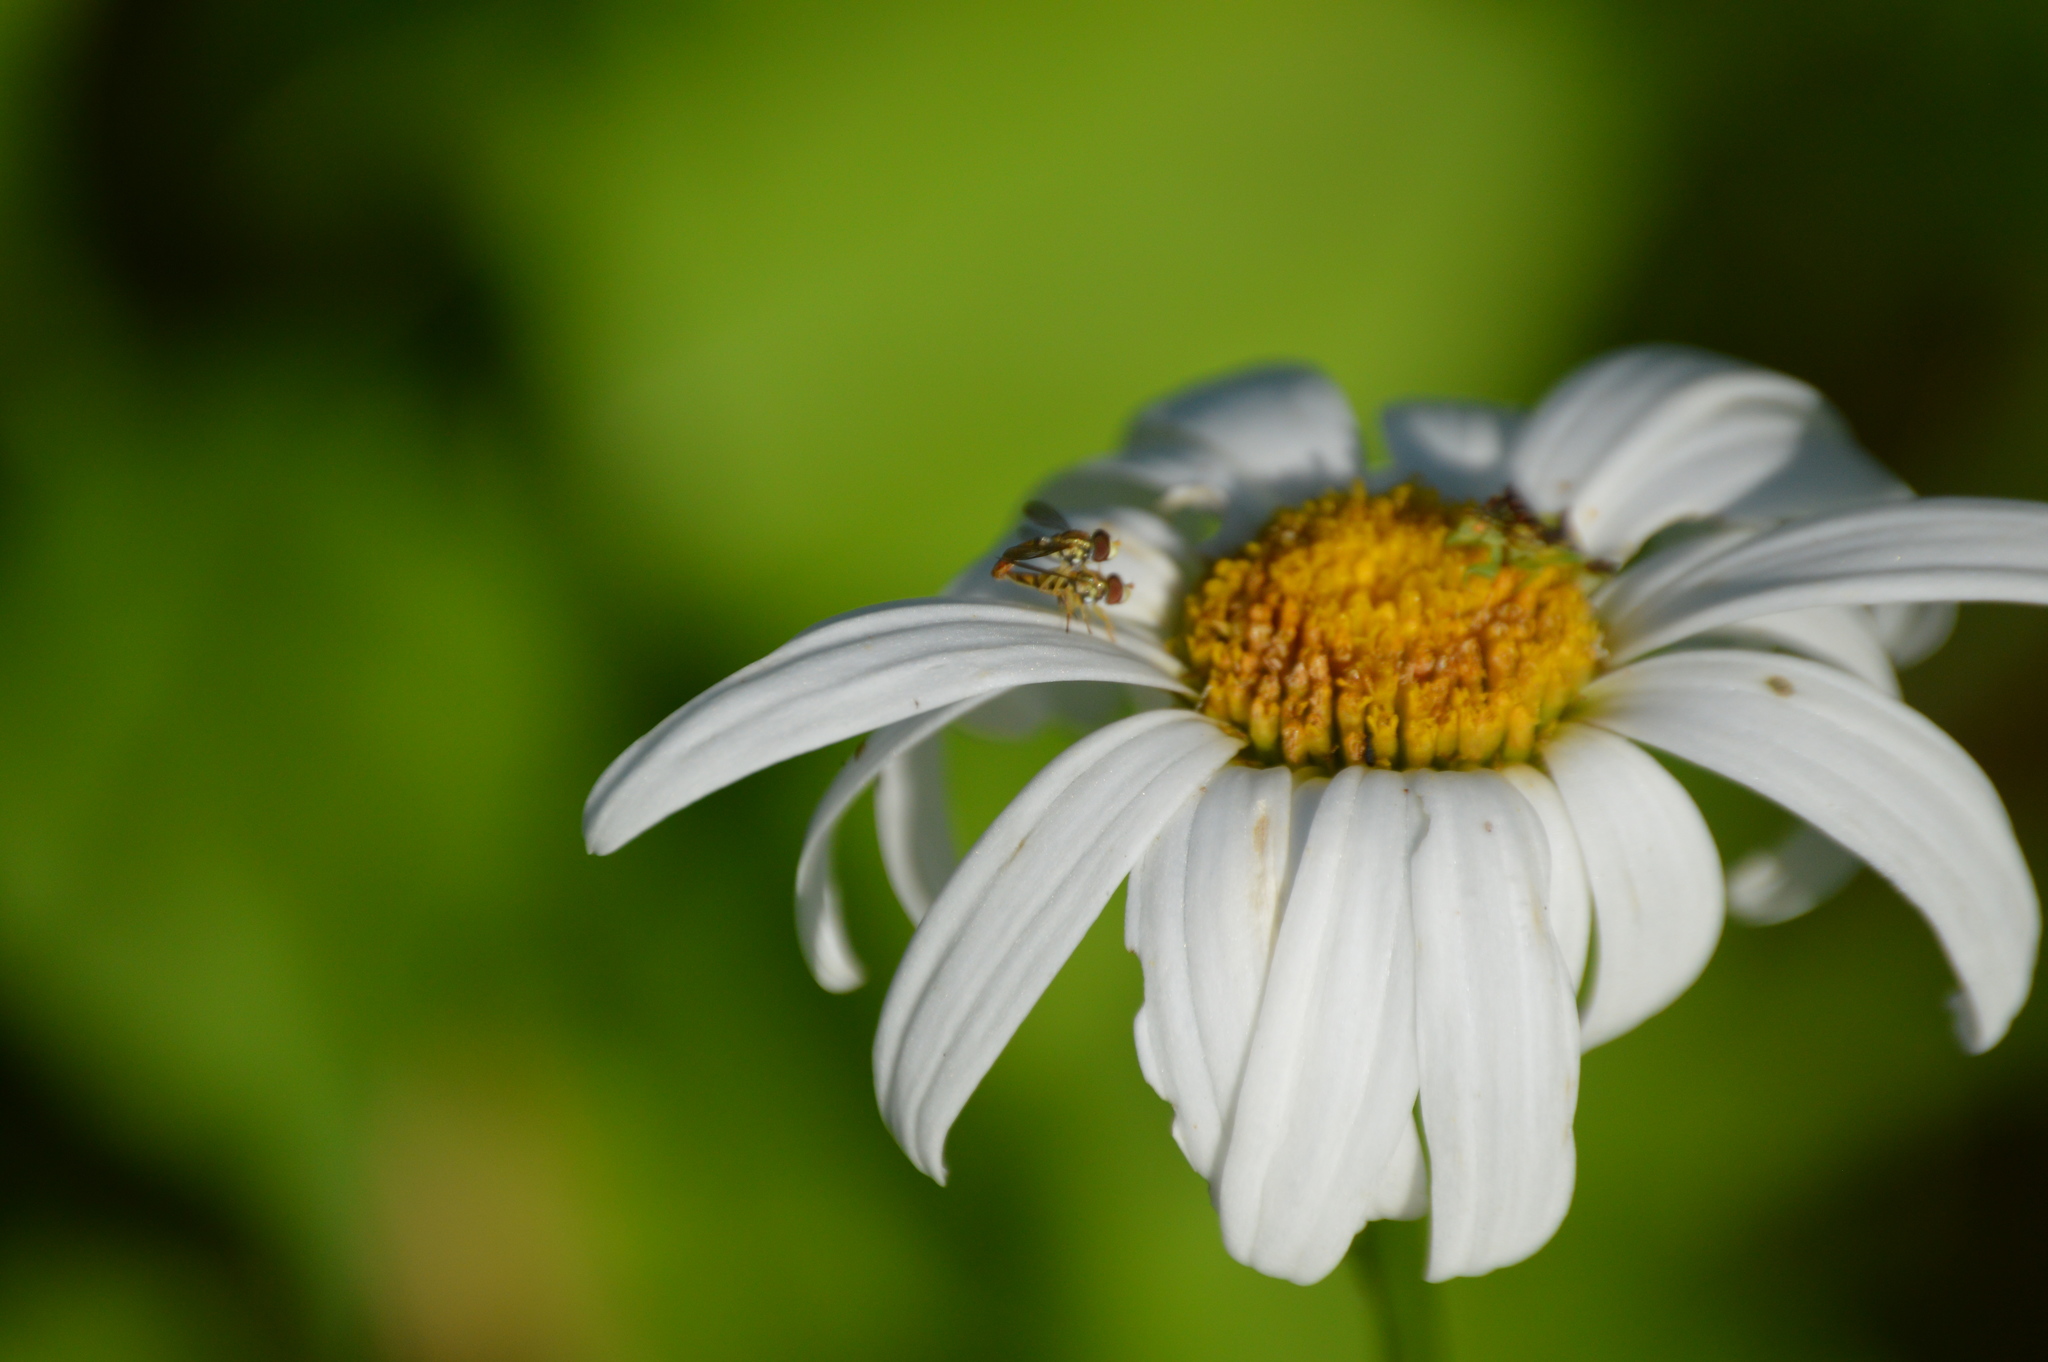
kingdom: Animalia
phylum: Arthropoda
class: Insecta
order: Diptera
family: Syrphidae
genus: Toxomerus
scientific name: Toxomerus
